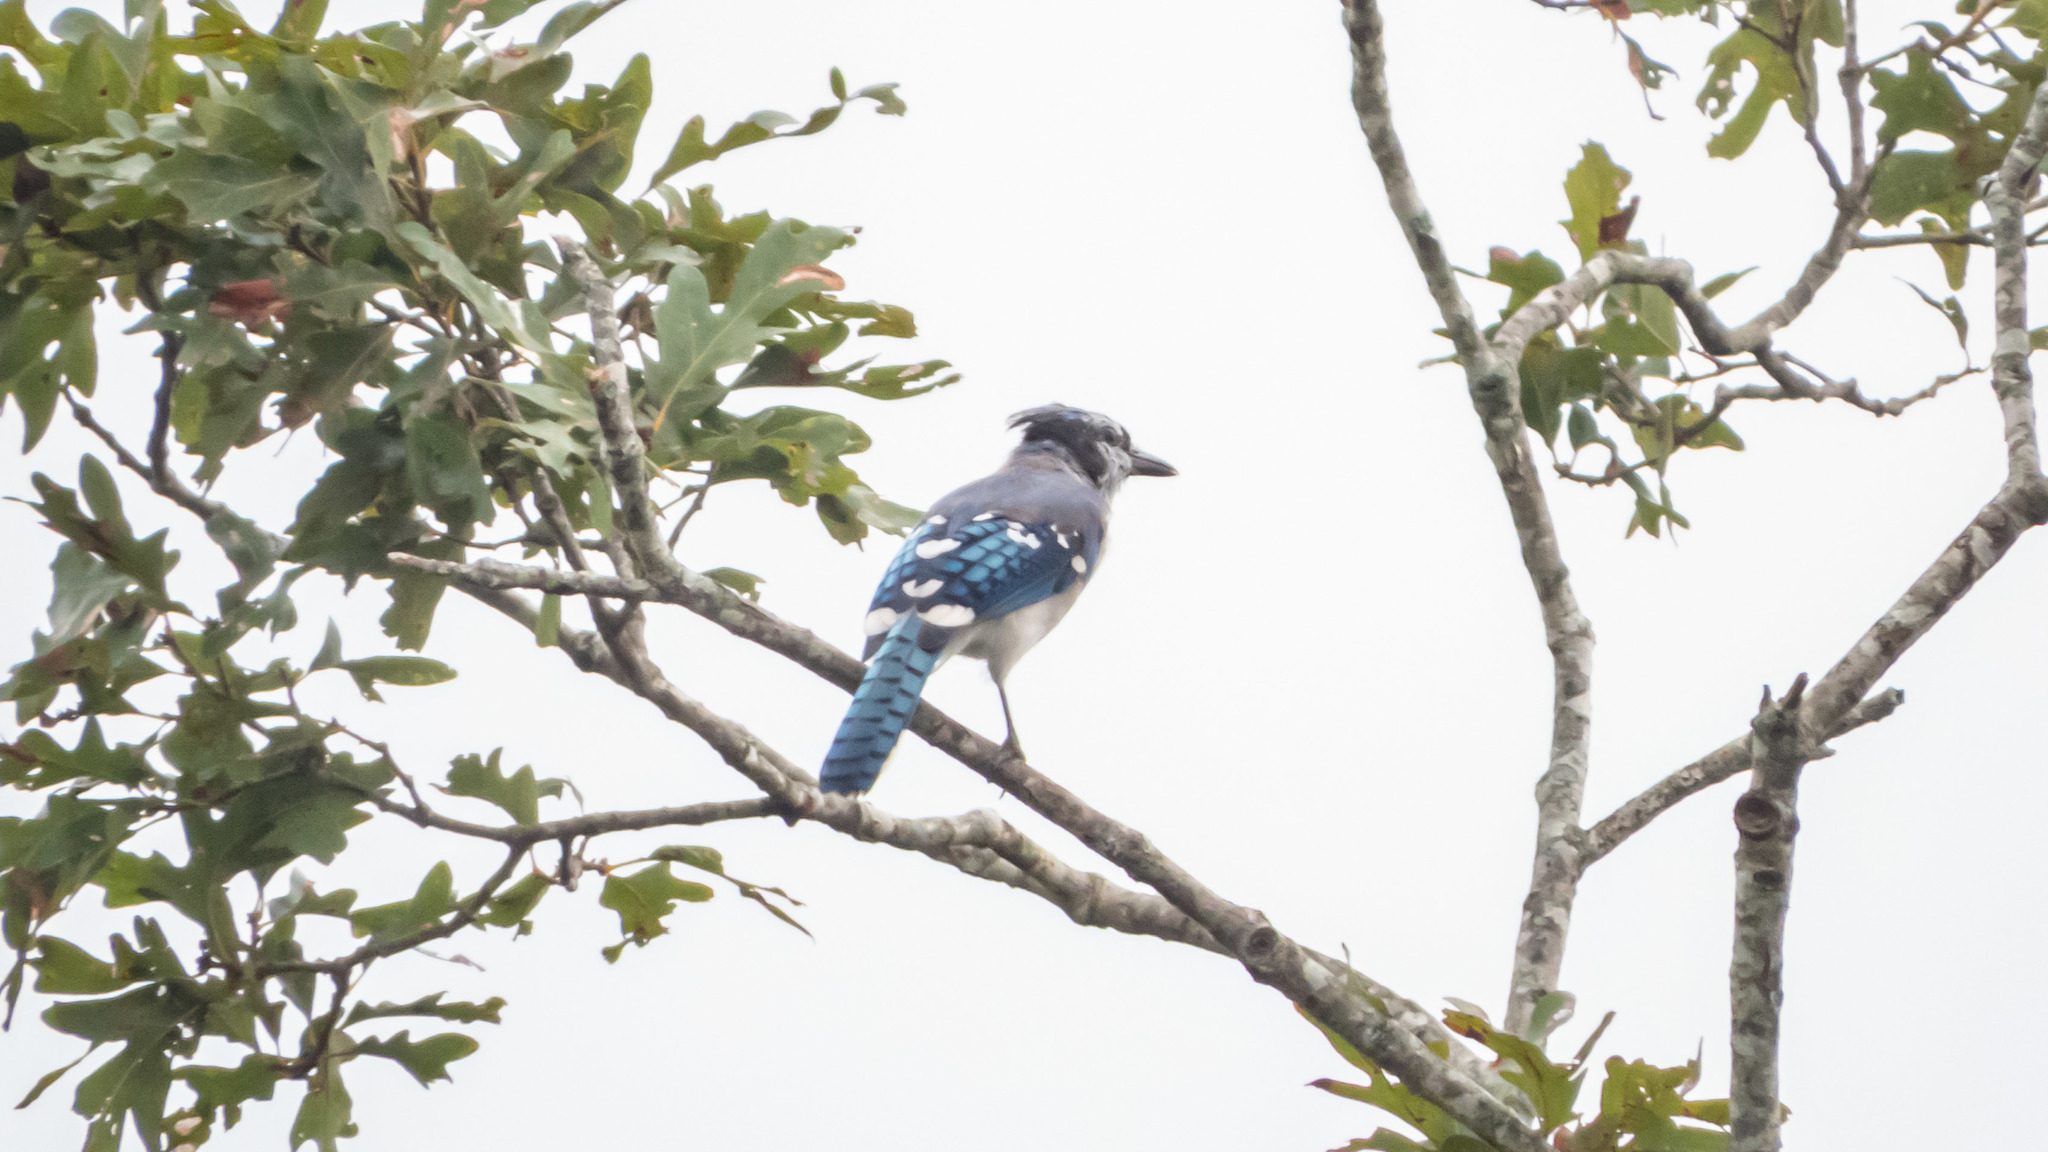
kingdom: Animalia
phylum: Chordata
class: Aves
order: Passeriformes
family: Corvidae
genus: Cyanocitta
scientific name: Cyanocitta cristata
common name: Blue jay
